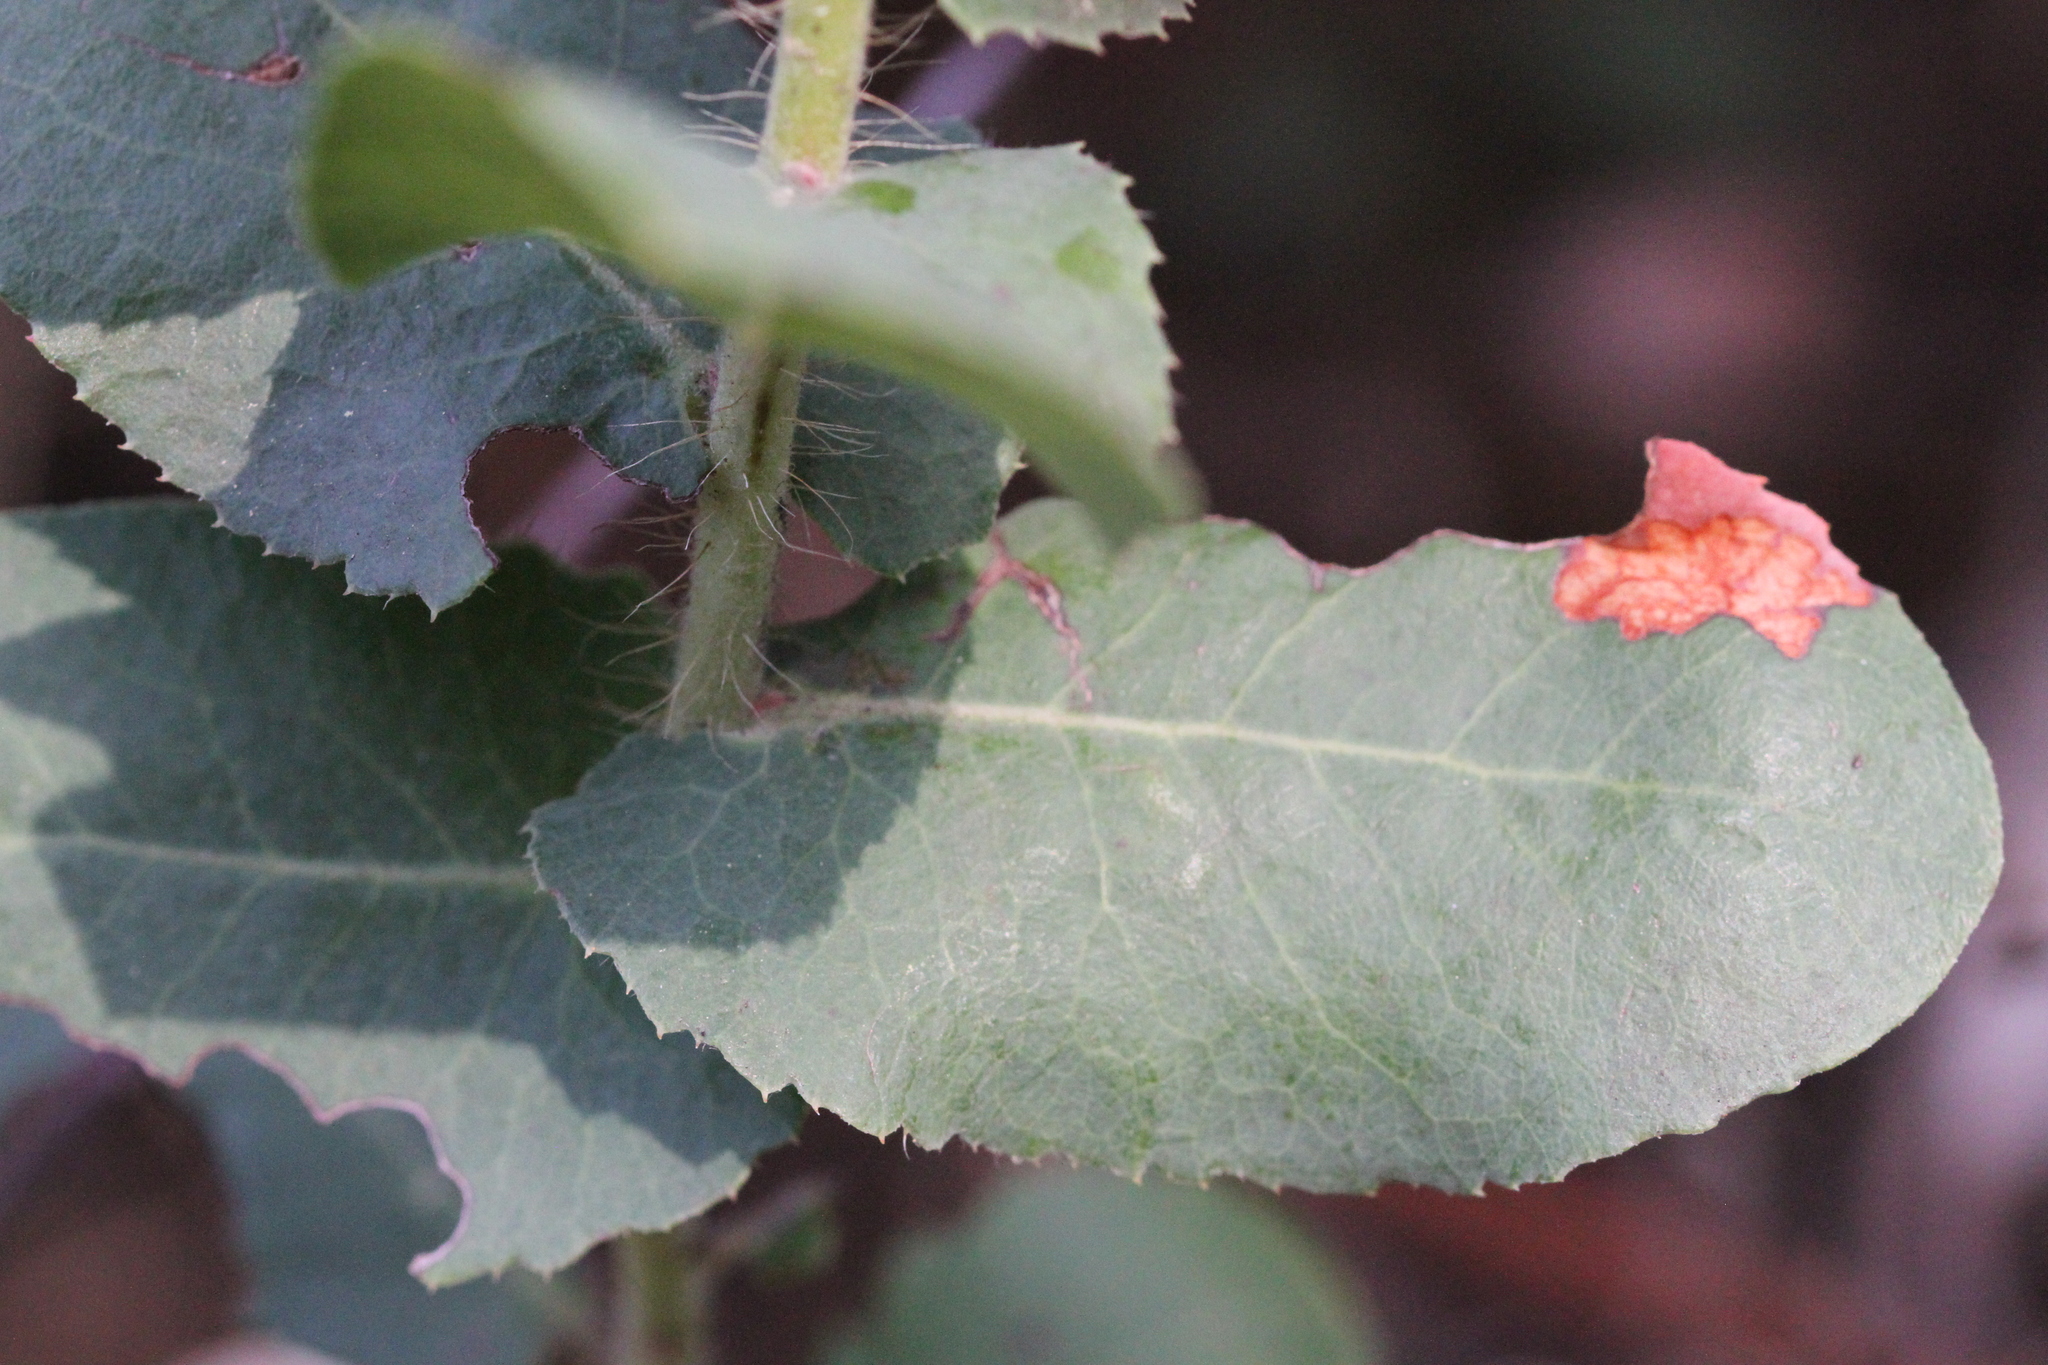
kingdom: Plantae
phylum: Tracheophyta
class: Magnoliopsida
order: Ericales
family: Ericaceae
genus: Arctostaphylos
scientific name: Arctostaphylos andersonii
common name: Santa cruz manzanita
